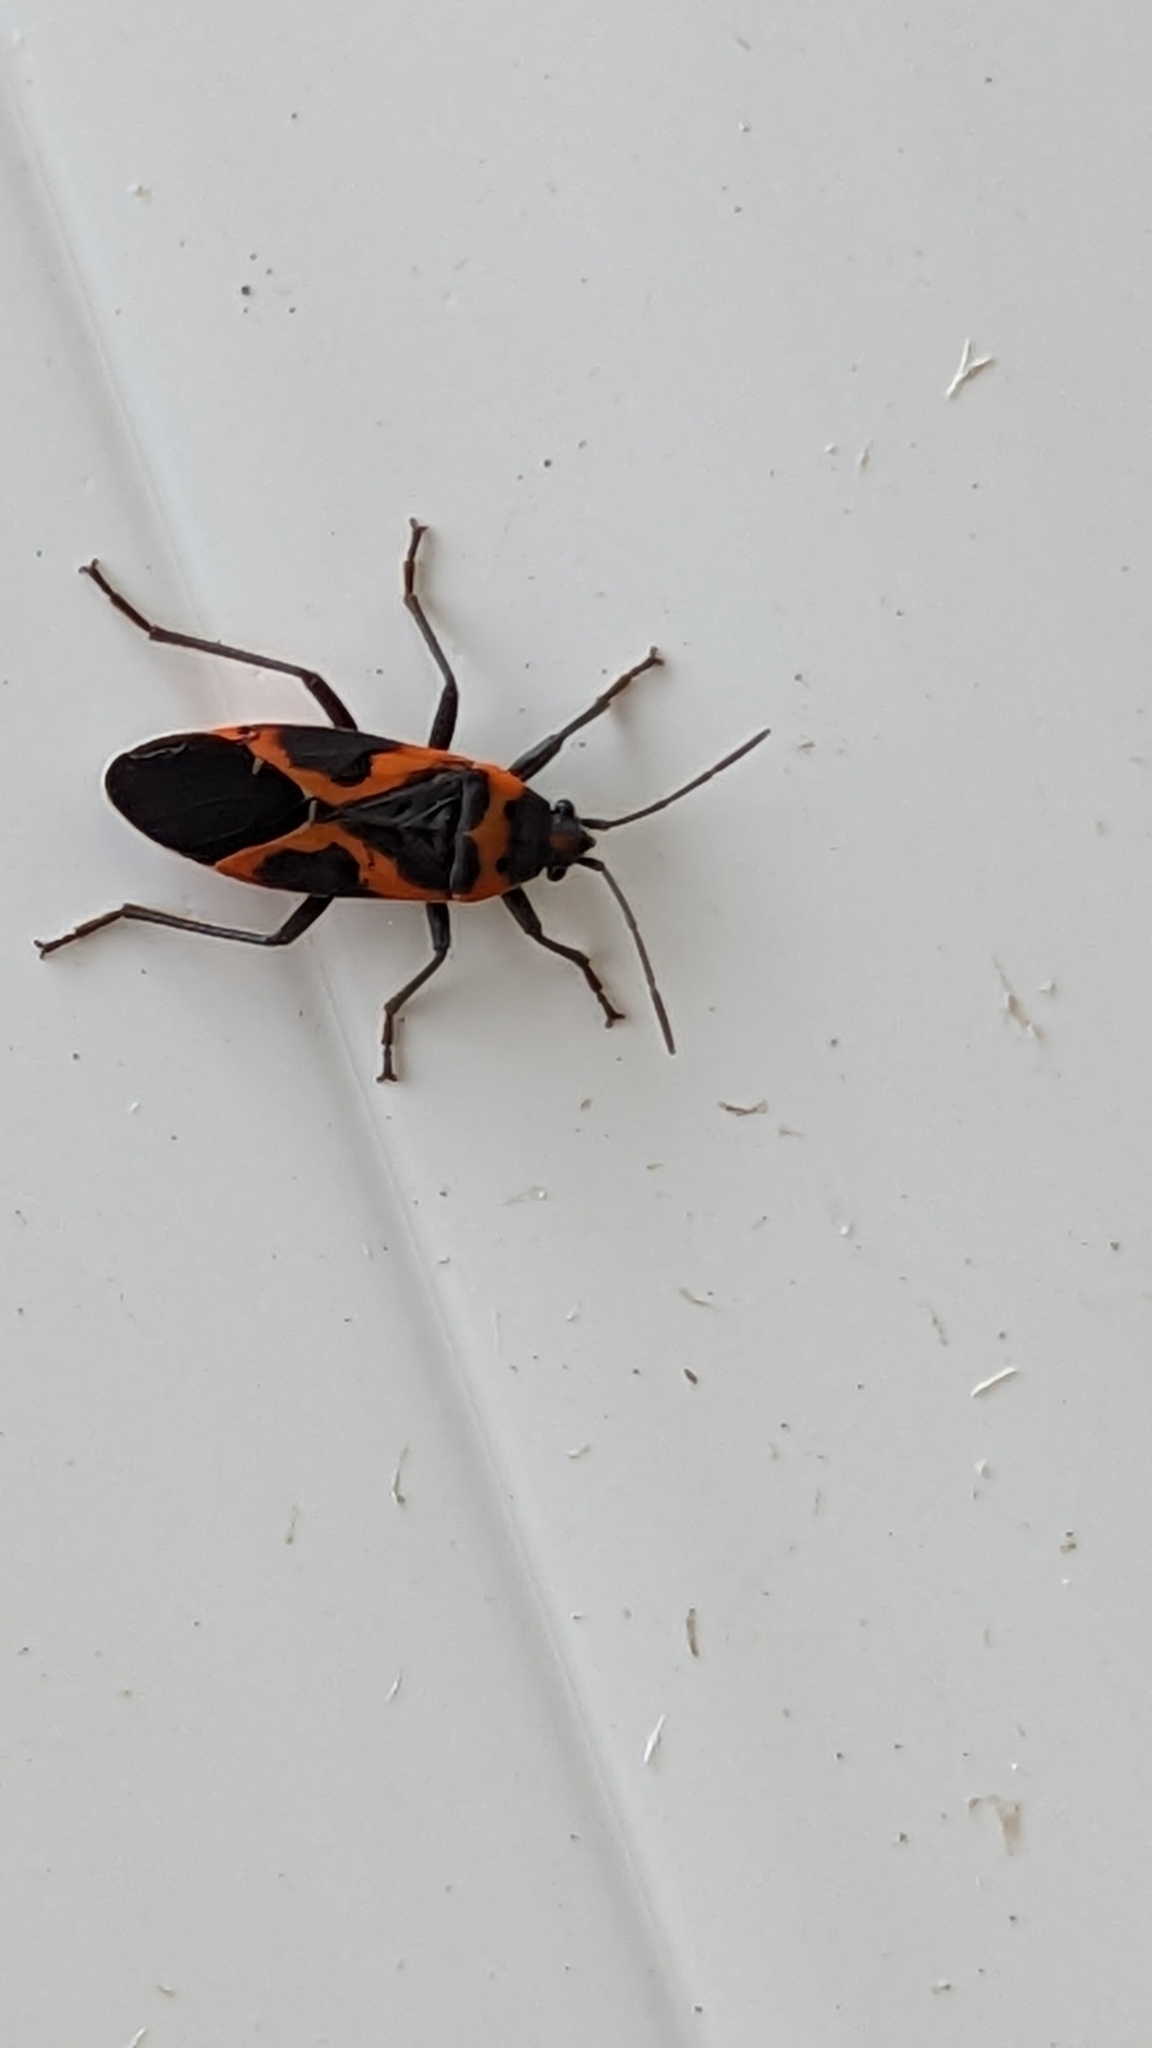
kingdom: Animalia
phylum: Arthropoda
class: Insecta
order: Hemiptera
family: Lygaeidae
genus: Lygaeus
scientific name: Lygaeus kalmii
